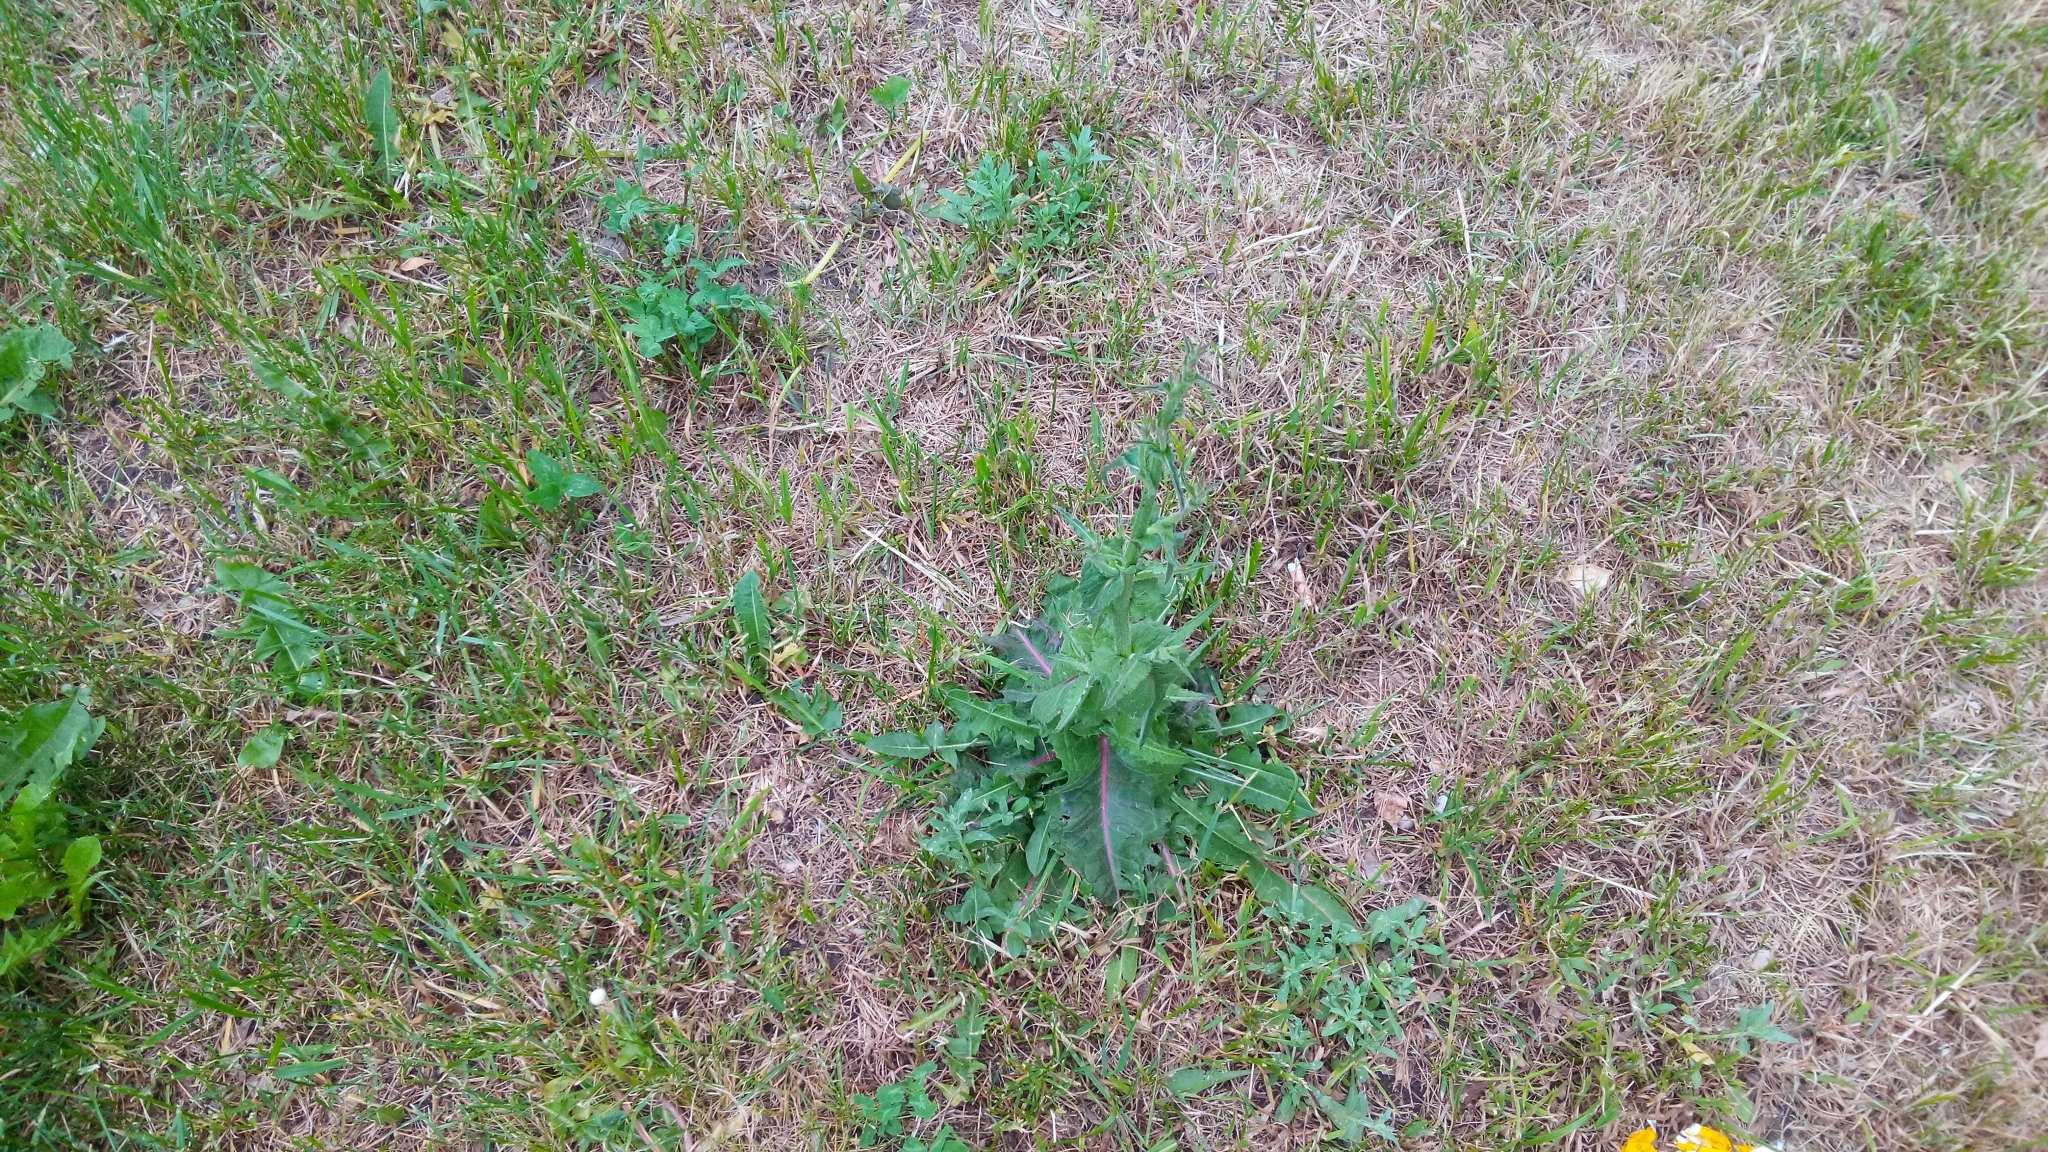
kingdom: Plantae
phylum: Tracheophyta
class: Magnoliopsida
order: Asterales
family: Asteraceae
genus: Cichorium
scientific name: Cichorium intybus
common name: Chicory
